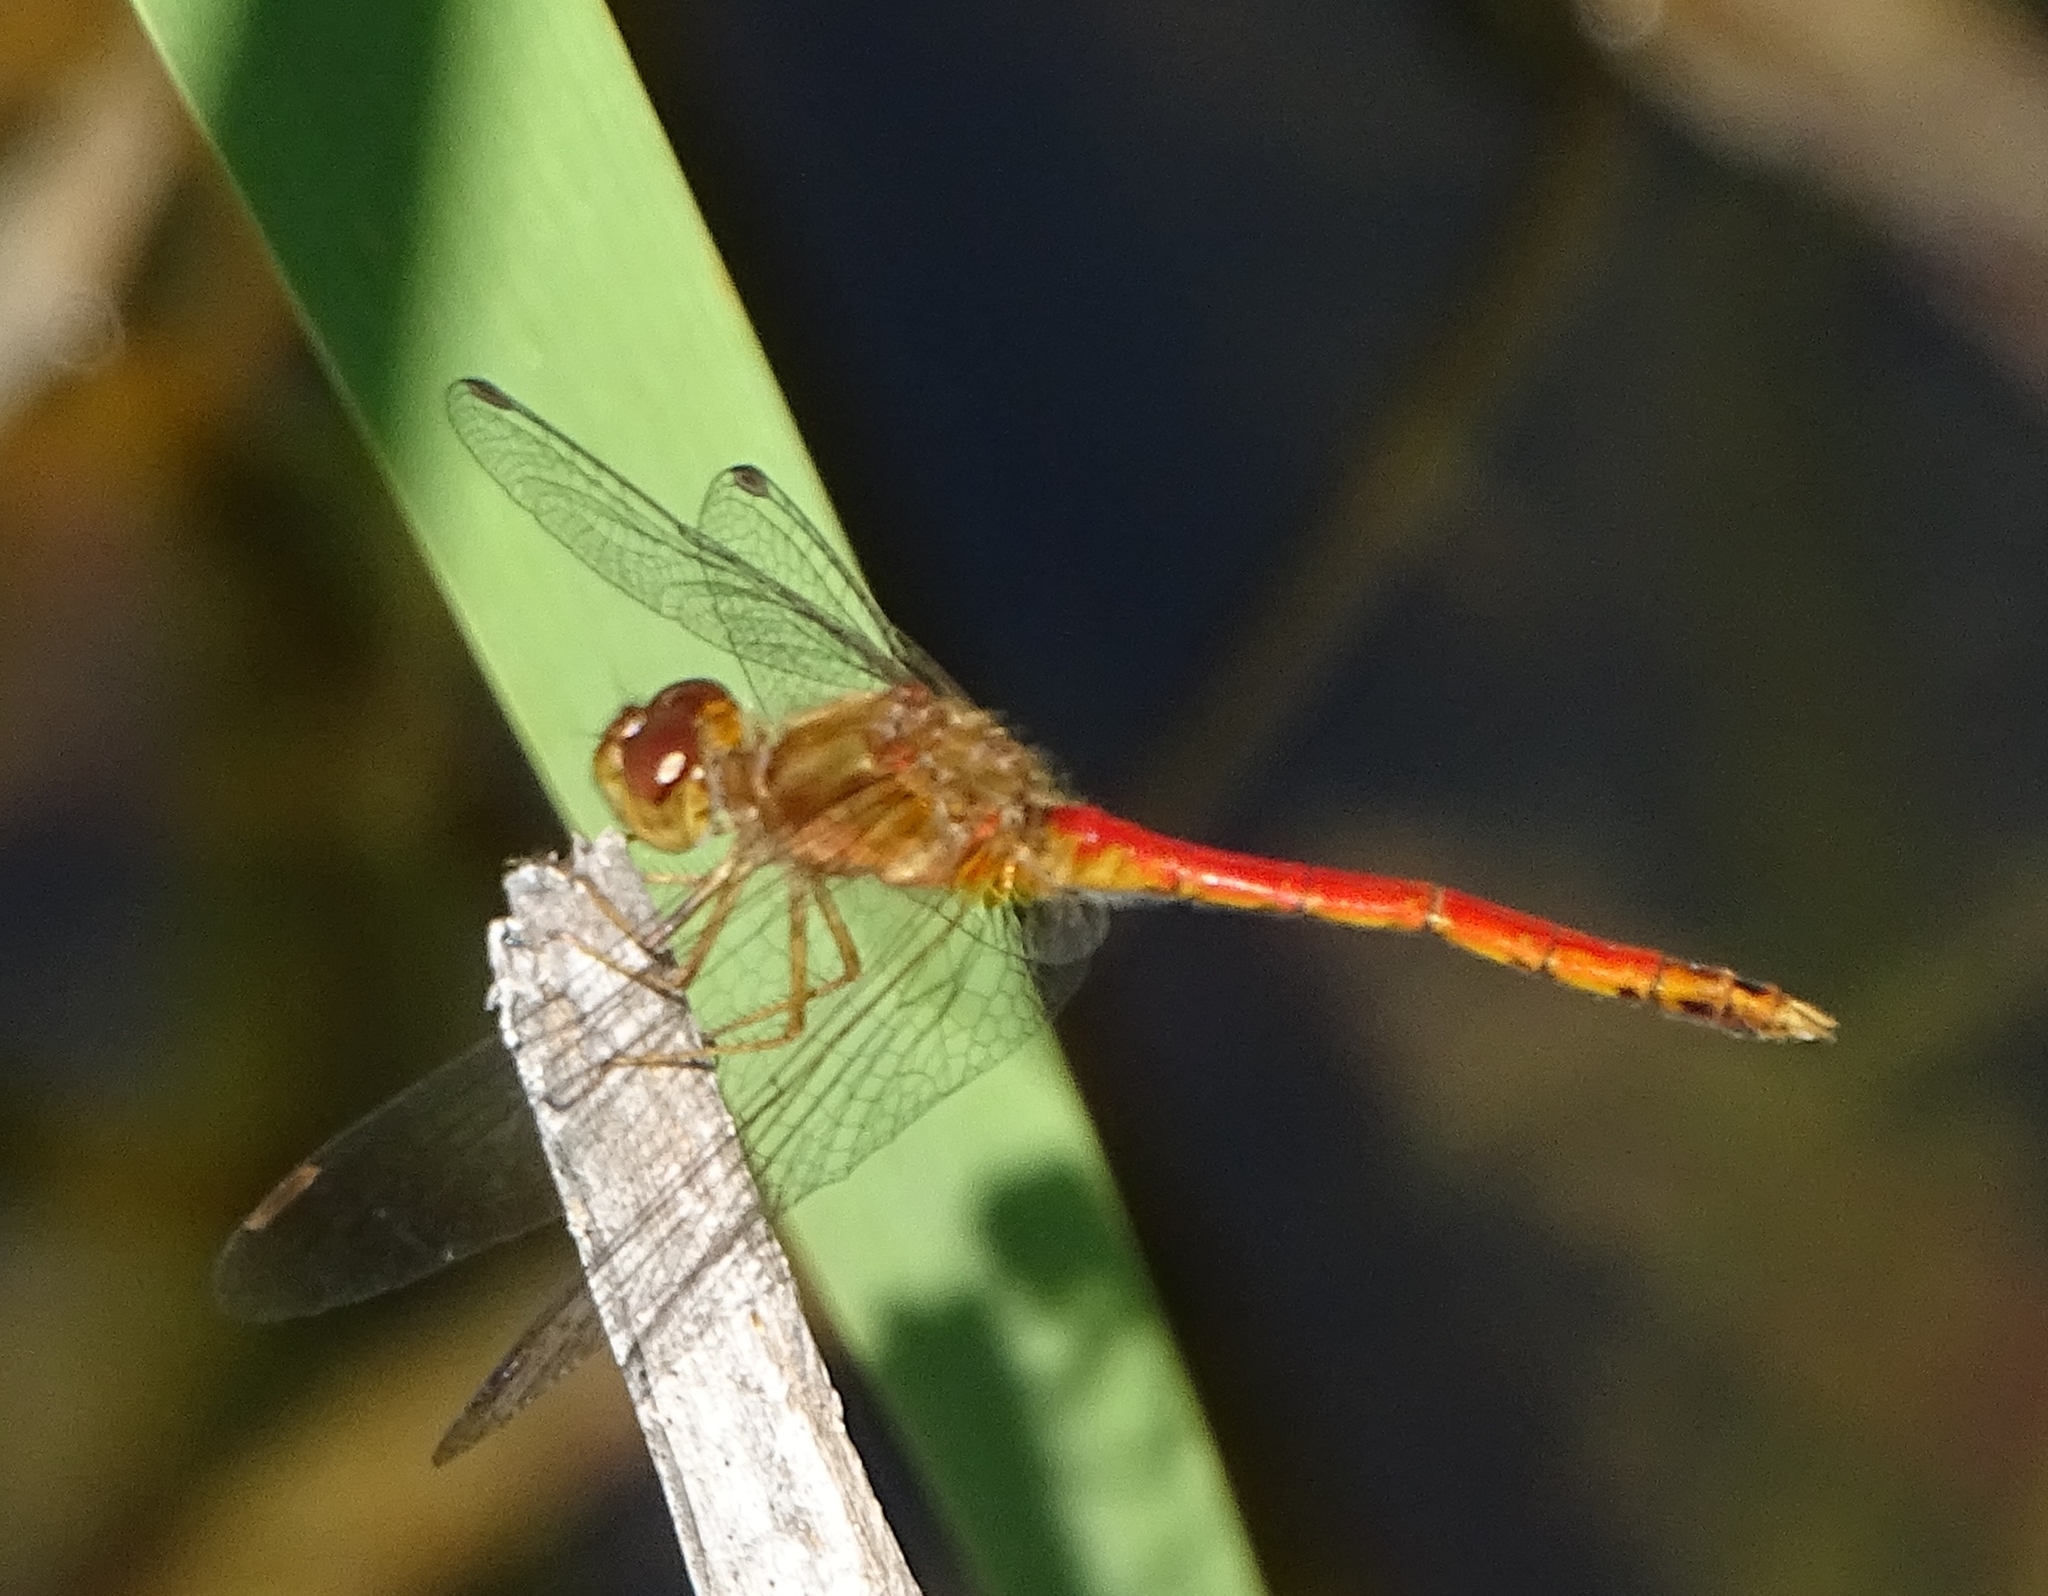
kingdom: Animalia
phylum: Arthropoda
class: Insecta
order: Odonata
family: Libellulidae
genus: Sympetrum
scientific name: Sympetrum vicinum
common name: Autumn meadowhawk
